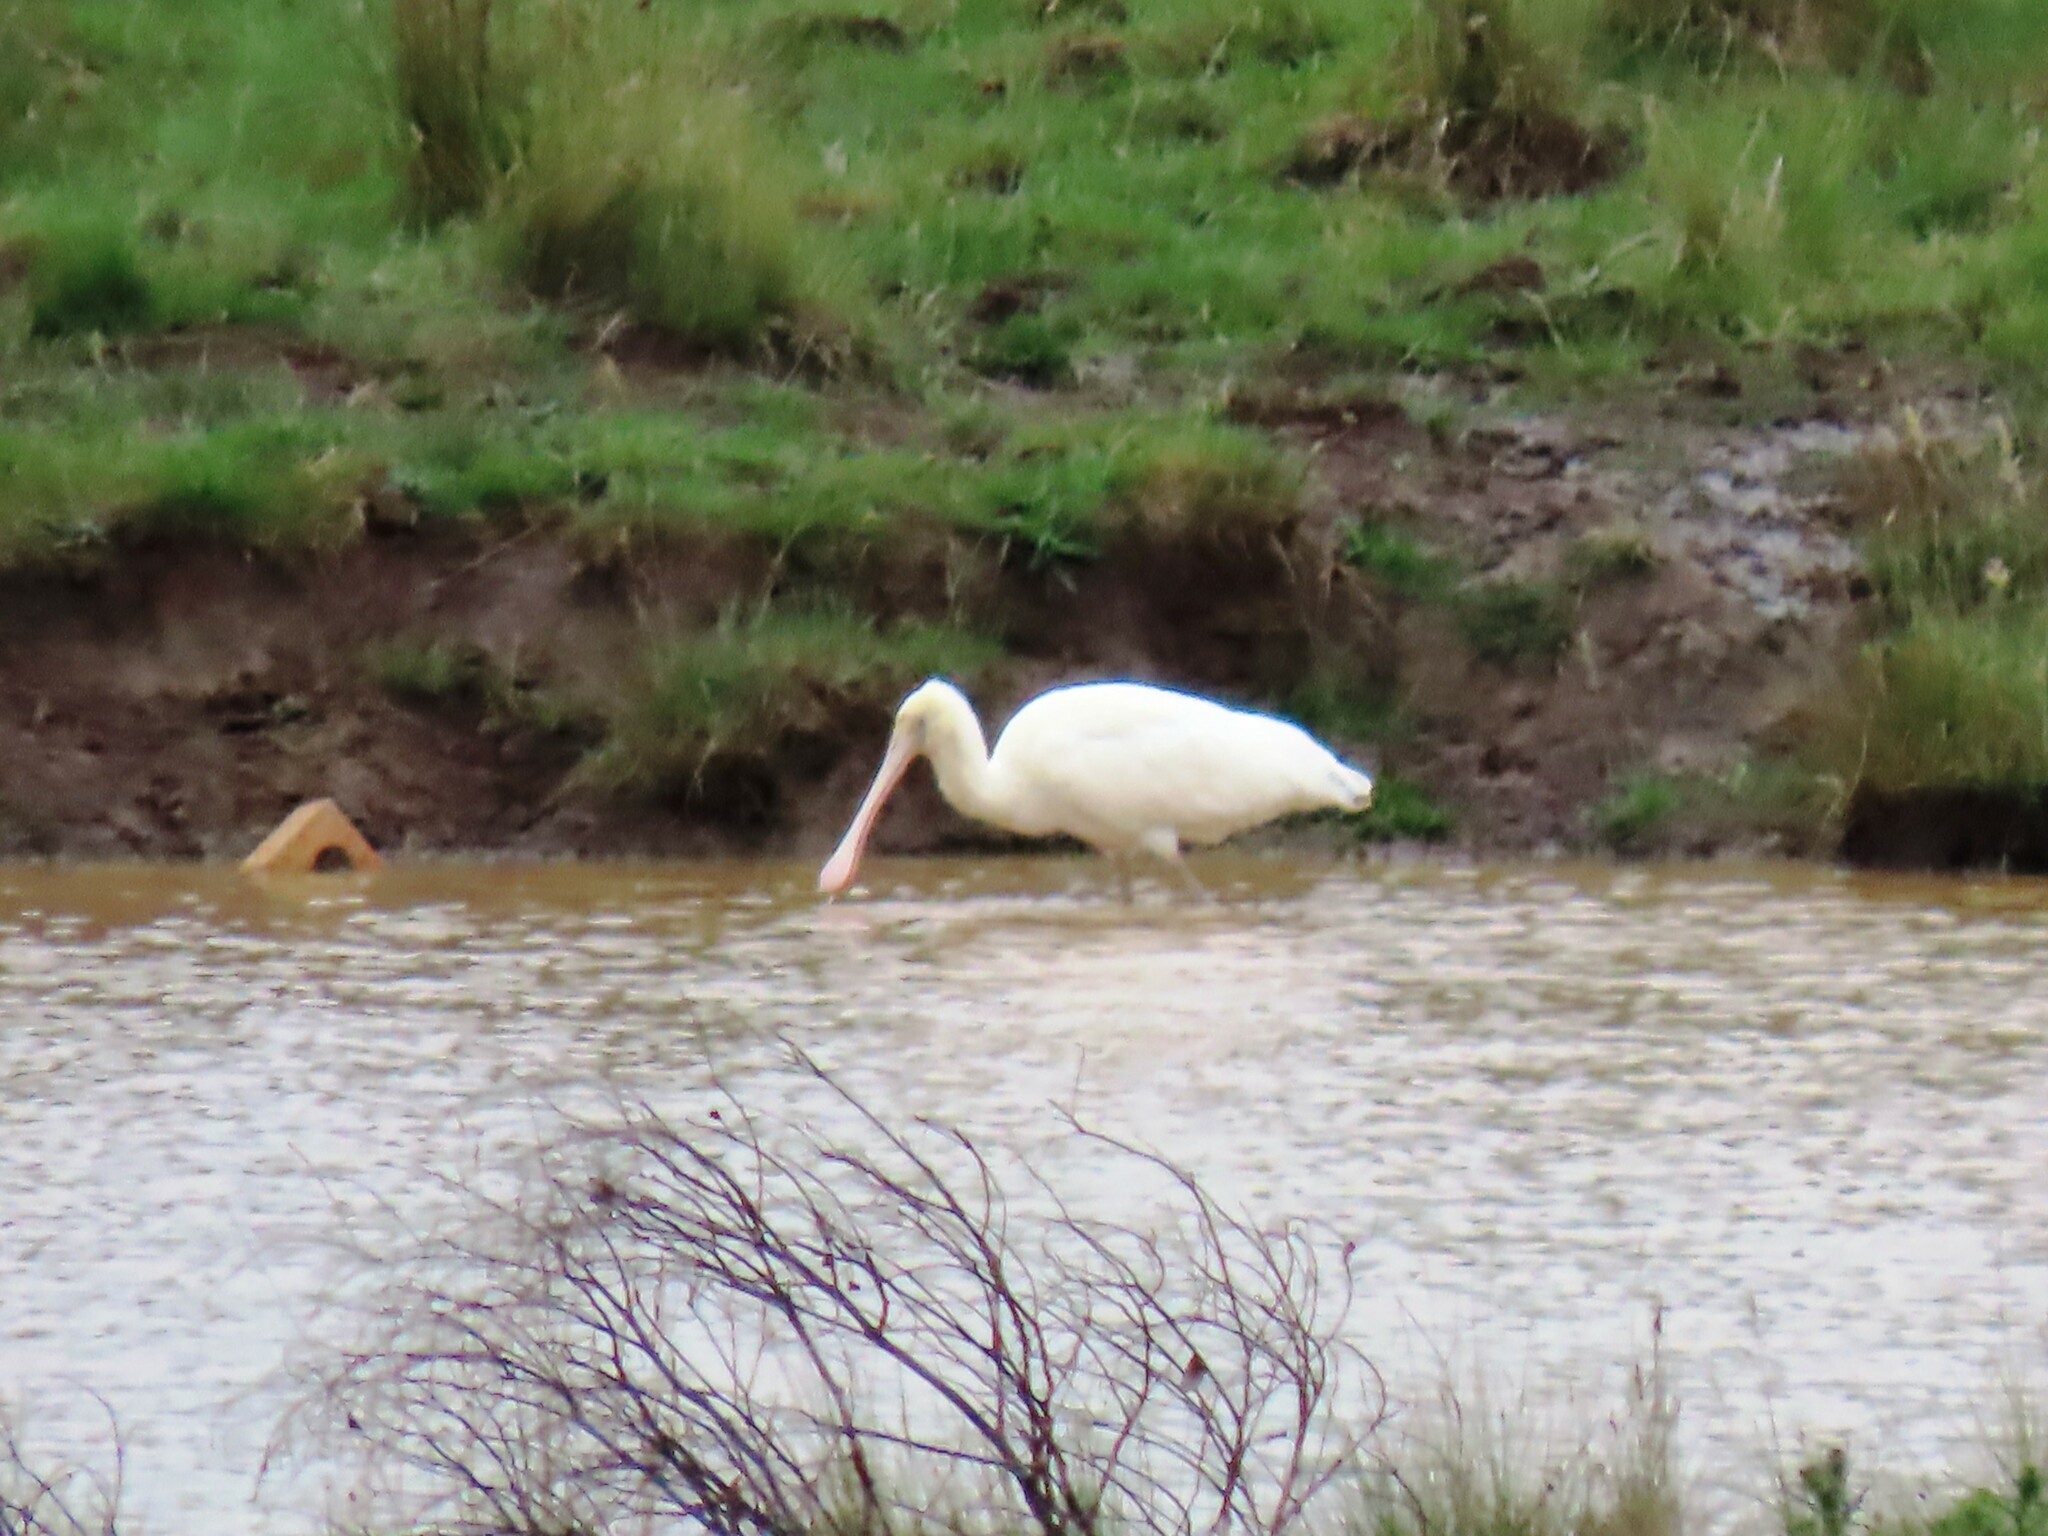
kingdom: Animalia
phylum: Chordata
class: Aves
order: Pelecaniformes
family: Threskiornithidae
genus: Platalea
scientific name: Platalea flavipes
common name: Yellow-billed spoonbill
